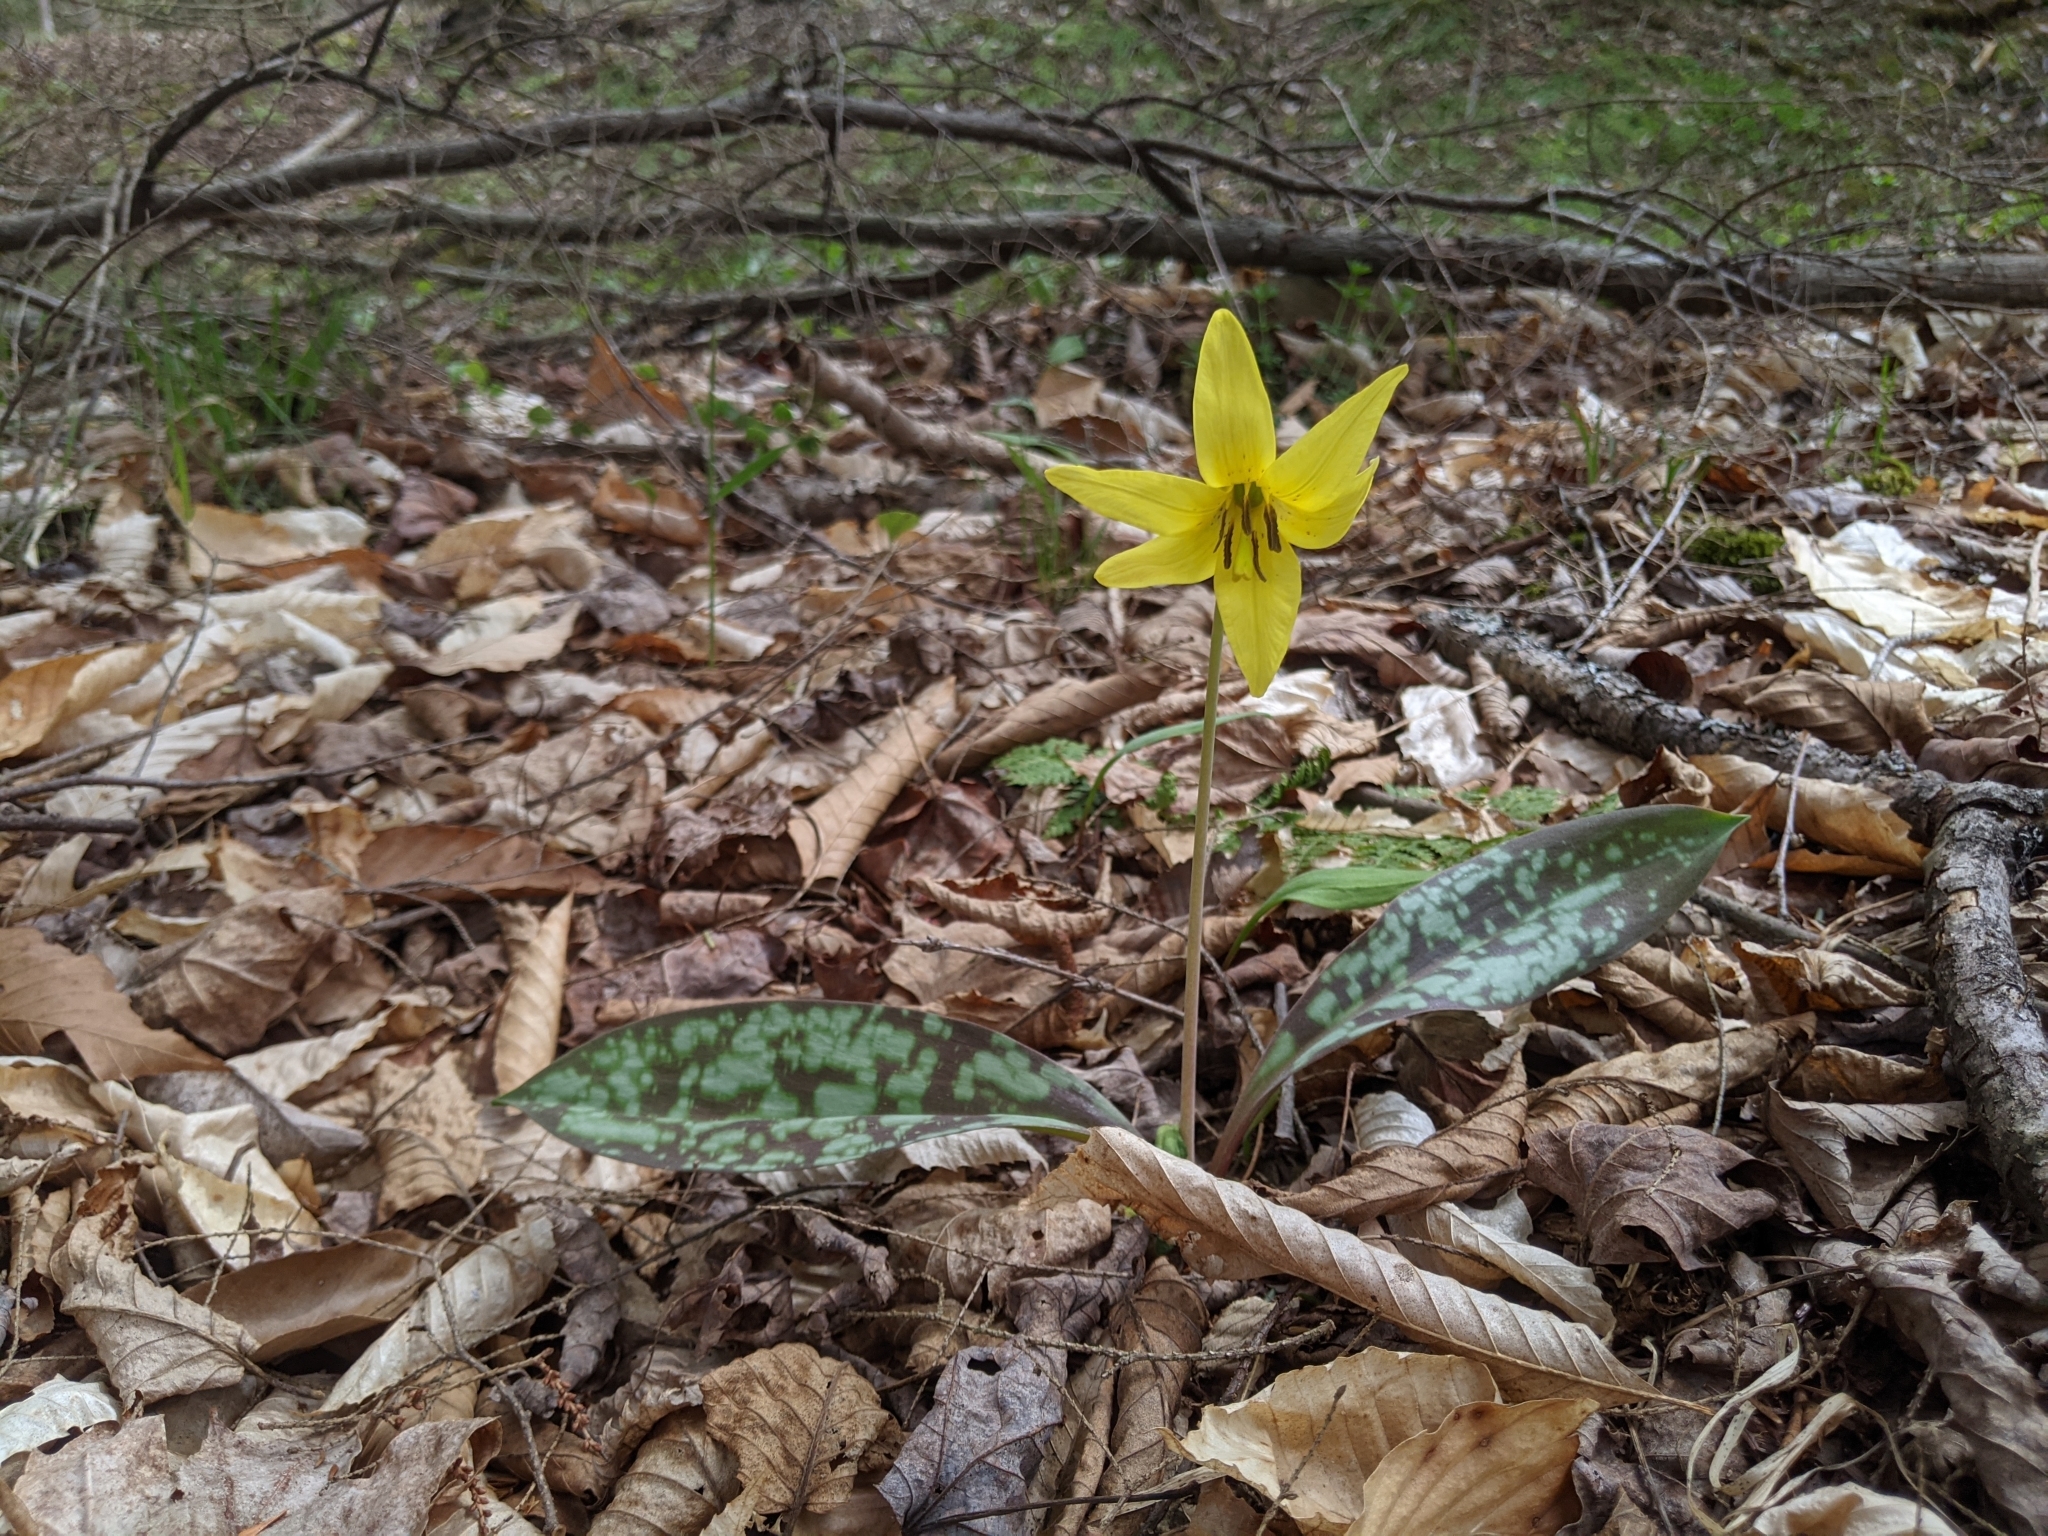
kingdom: Plantae
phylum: Tracheophyta
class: Liliopsida
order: Liliales
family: Liliaceae
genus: Erythronium
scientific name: Erythronium americanum
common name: Yellow adder's-tongue
